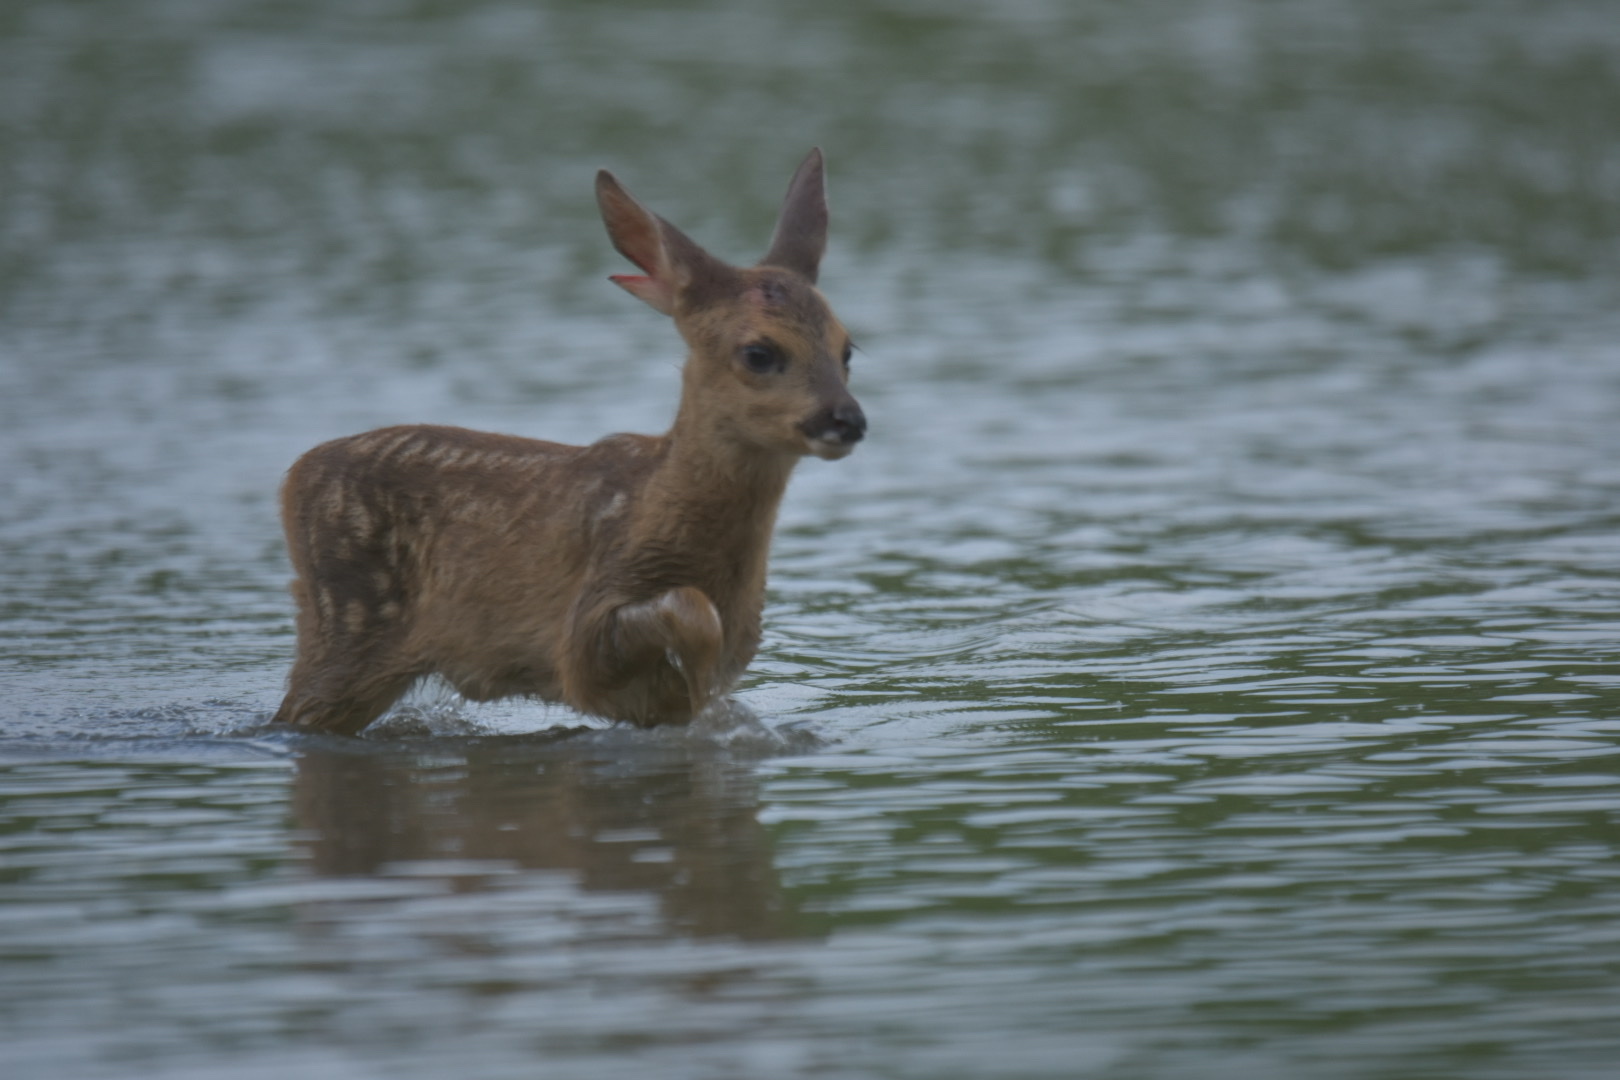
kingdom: Animalia
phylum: Chordata
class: Mammalia
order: Artiodactyla
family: Cervidae
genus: Capreolus
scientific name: Capreolus capreolus
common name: Western roe deer
